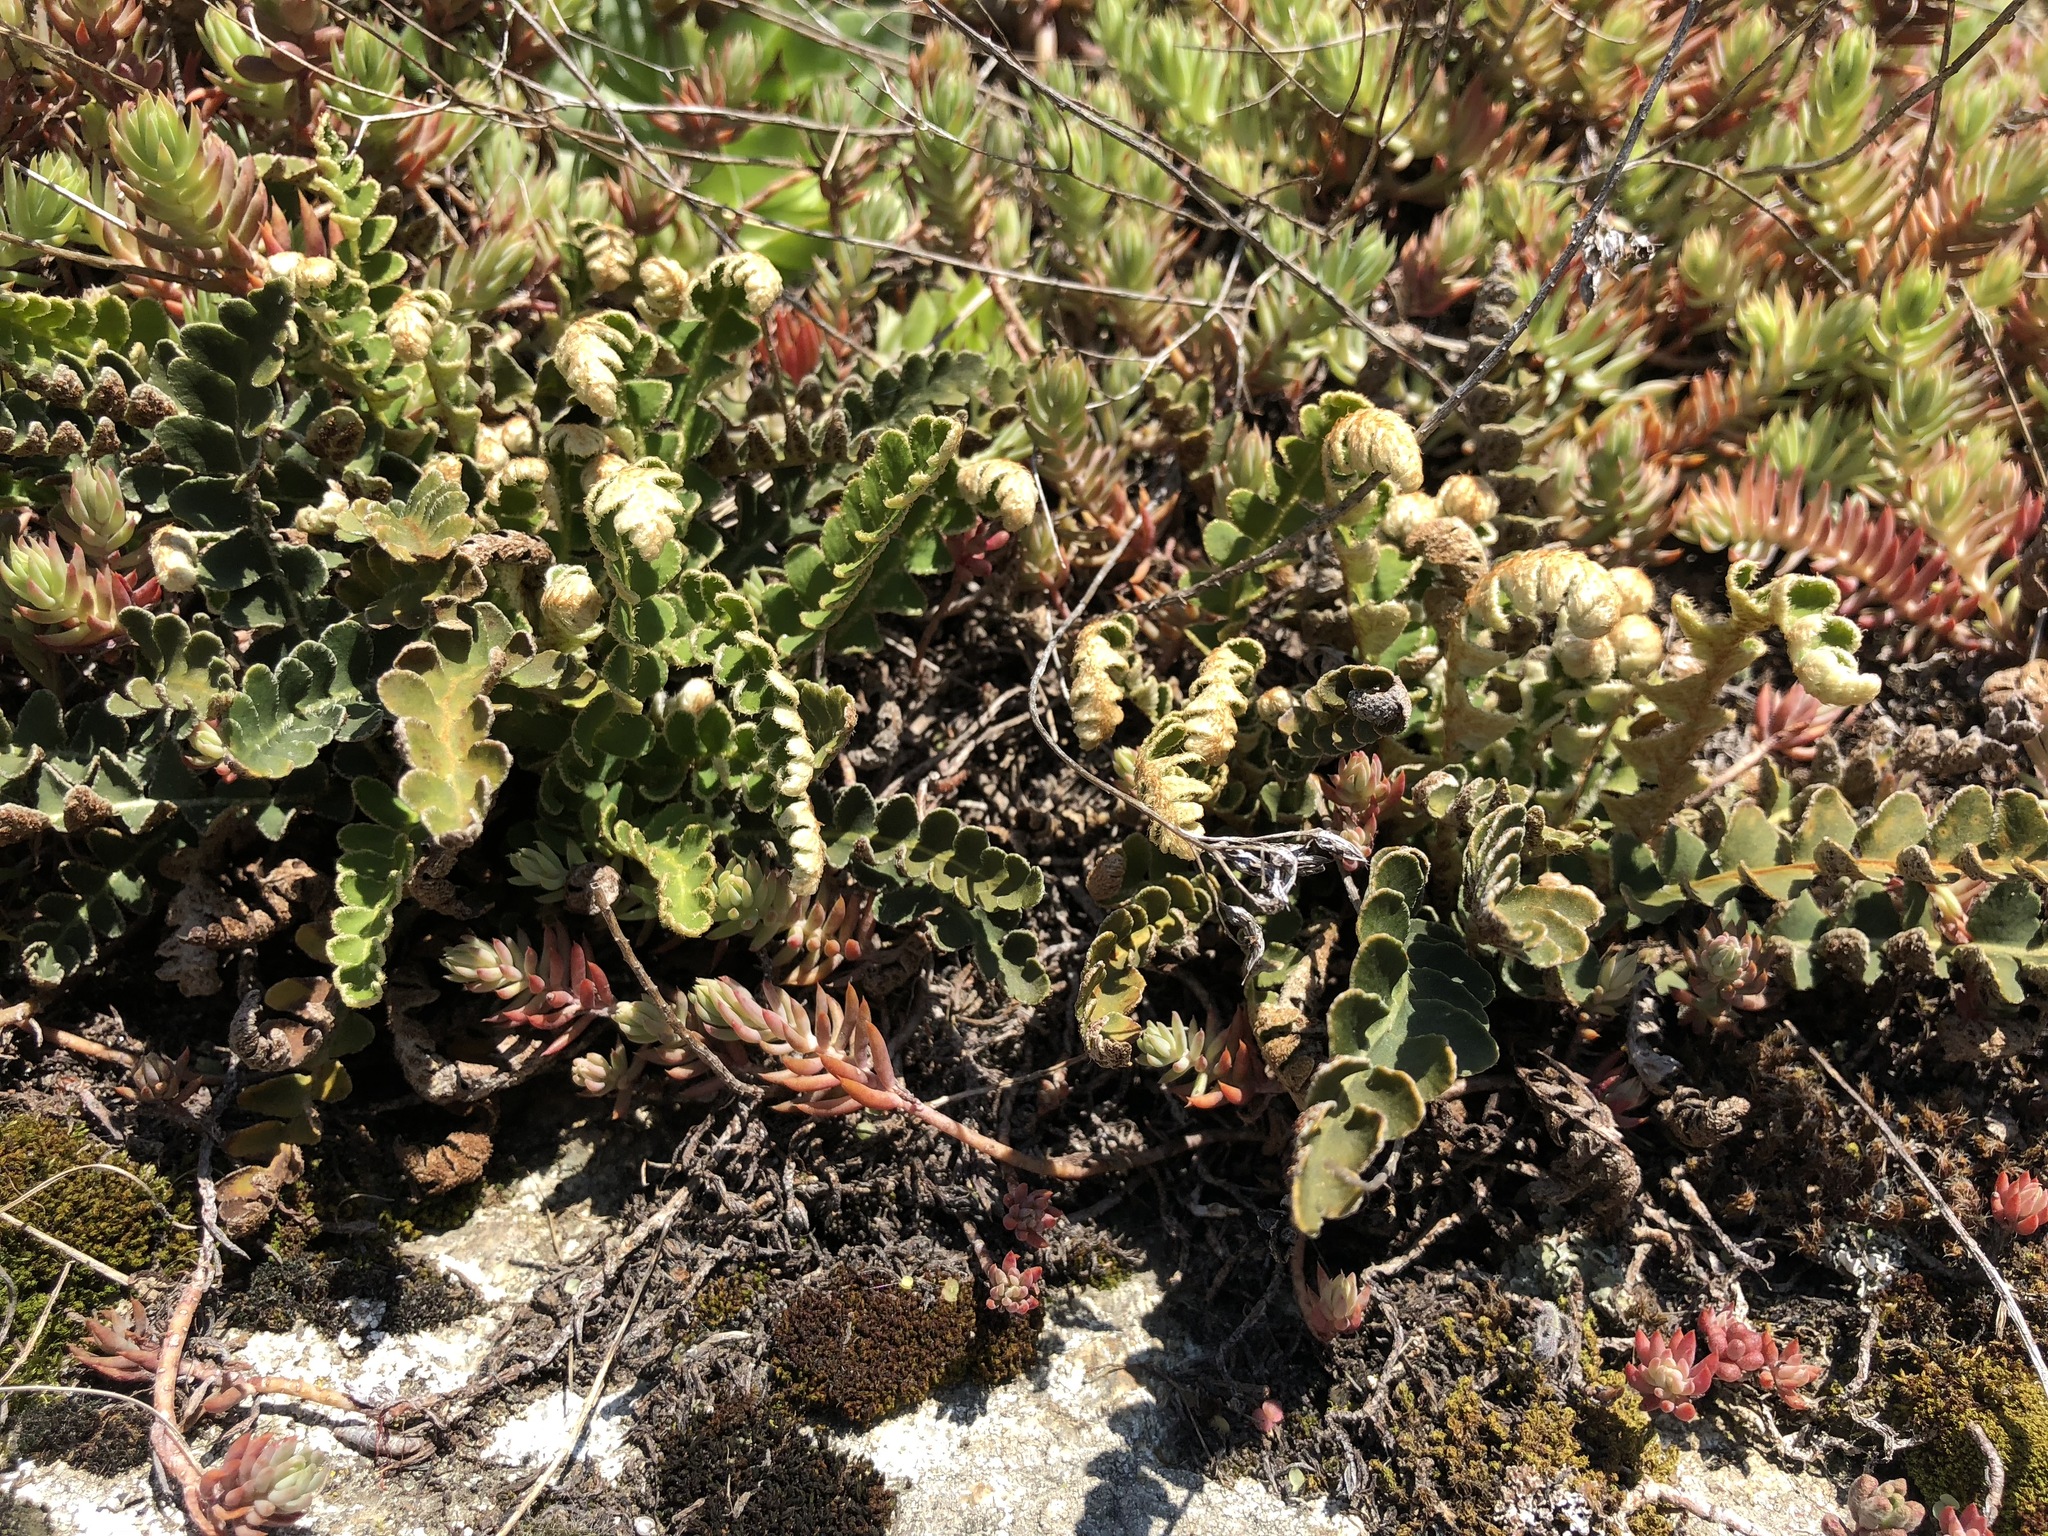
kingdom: Plantae
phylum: Tracheophyta
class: Polypodiopsida
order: Polypodiales
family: Aspleniaceae
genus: Asplenium
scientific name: Asplenium ceterach
